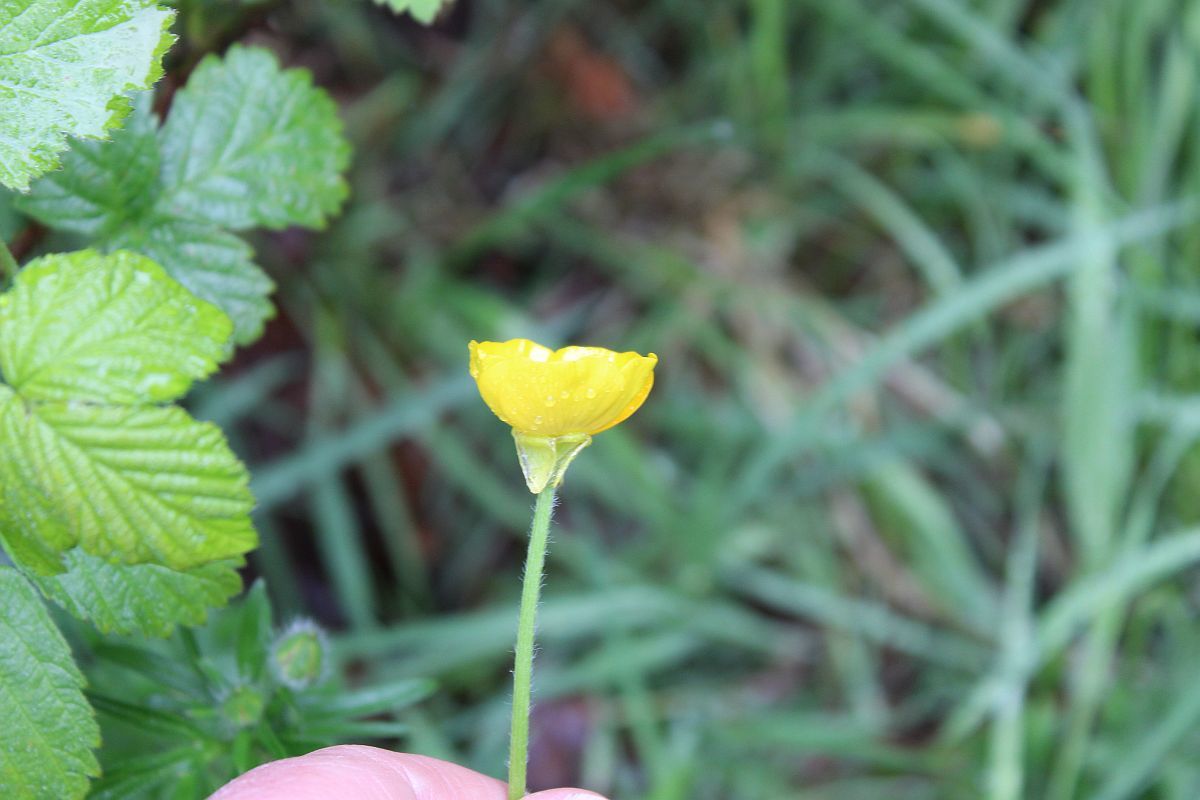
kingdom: Plantae
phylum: Tracheophyta
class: Magnoliopsida
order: Ranunculales
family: Ranunculaceae
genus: Ranunculus
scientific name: Ranunculus bulbosus
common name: Bulbous buttercup
